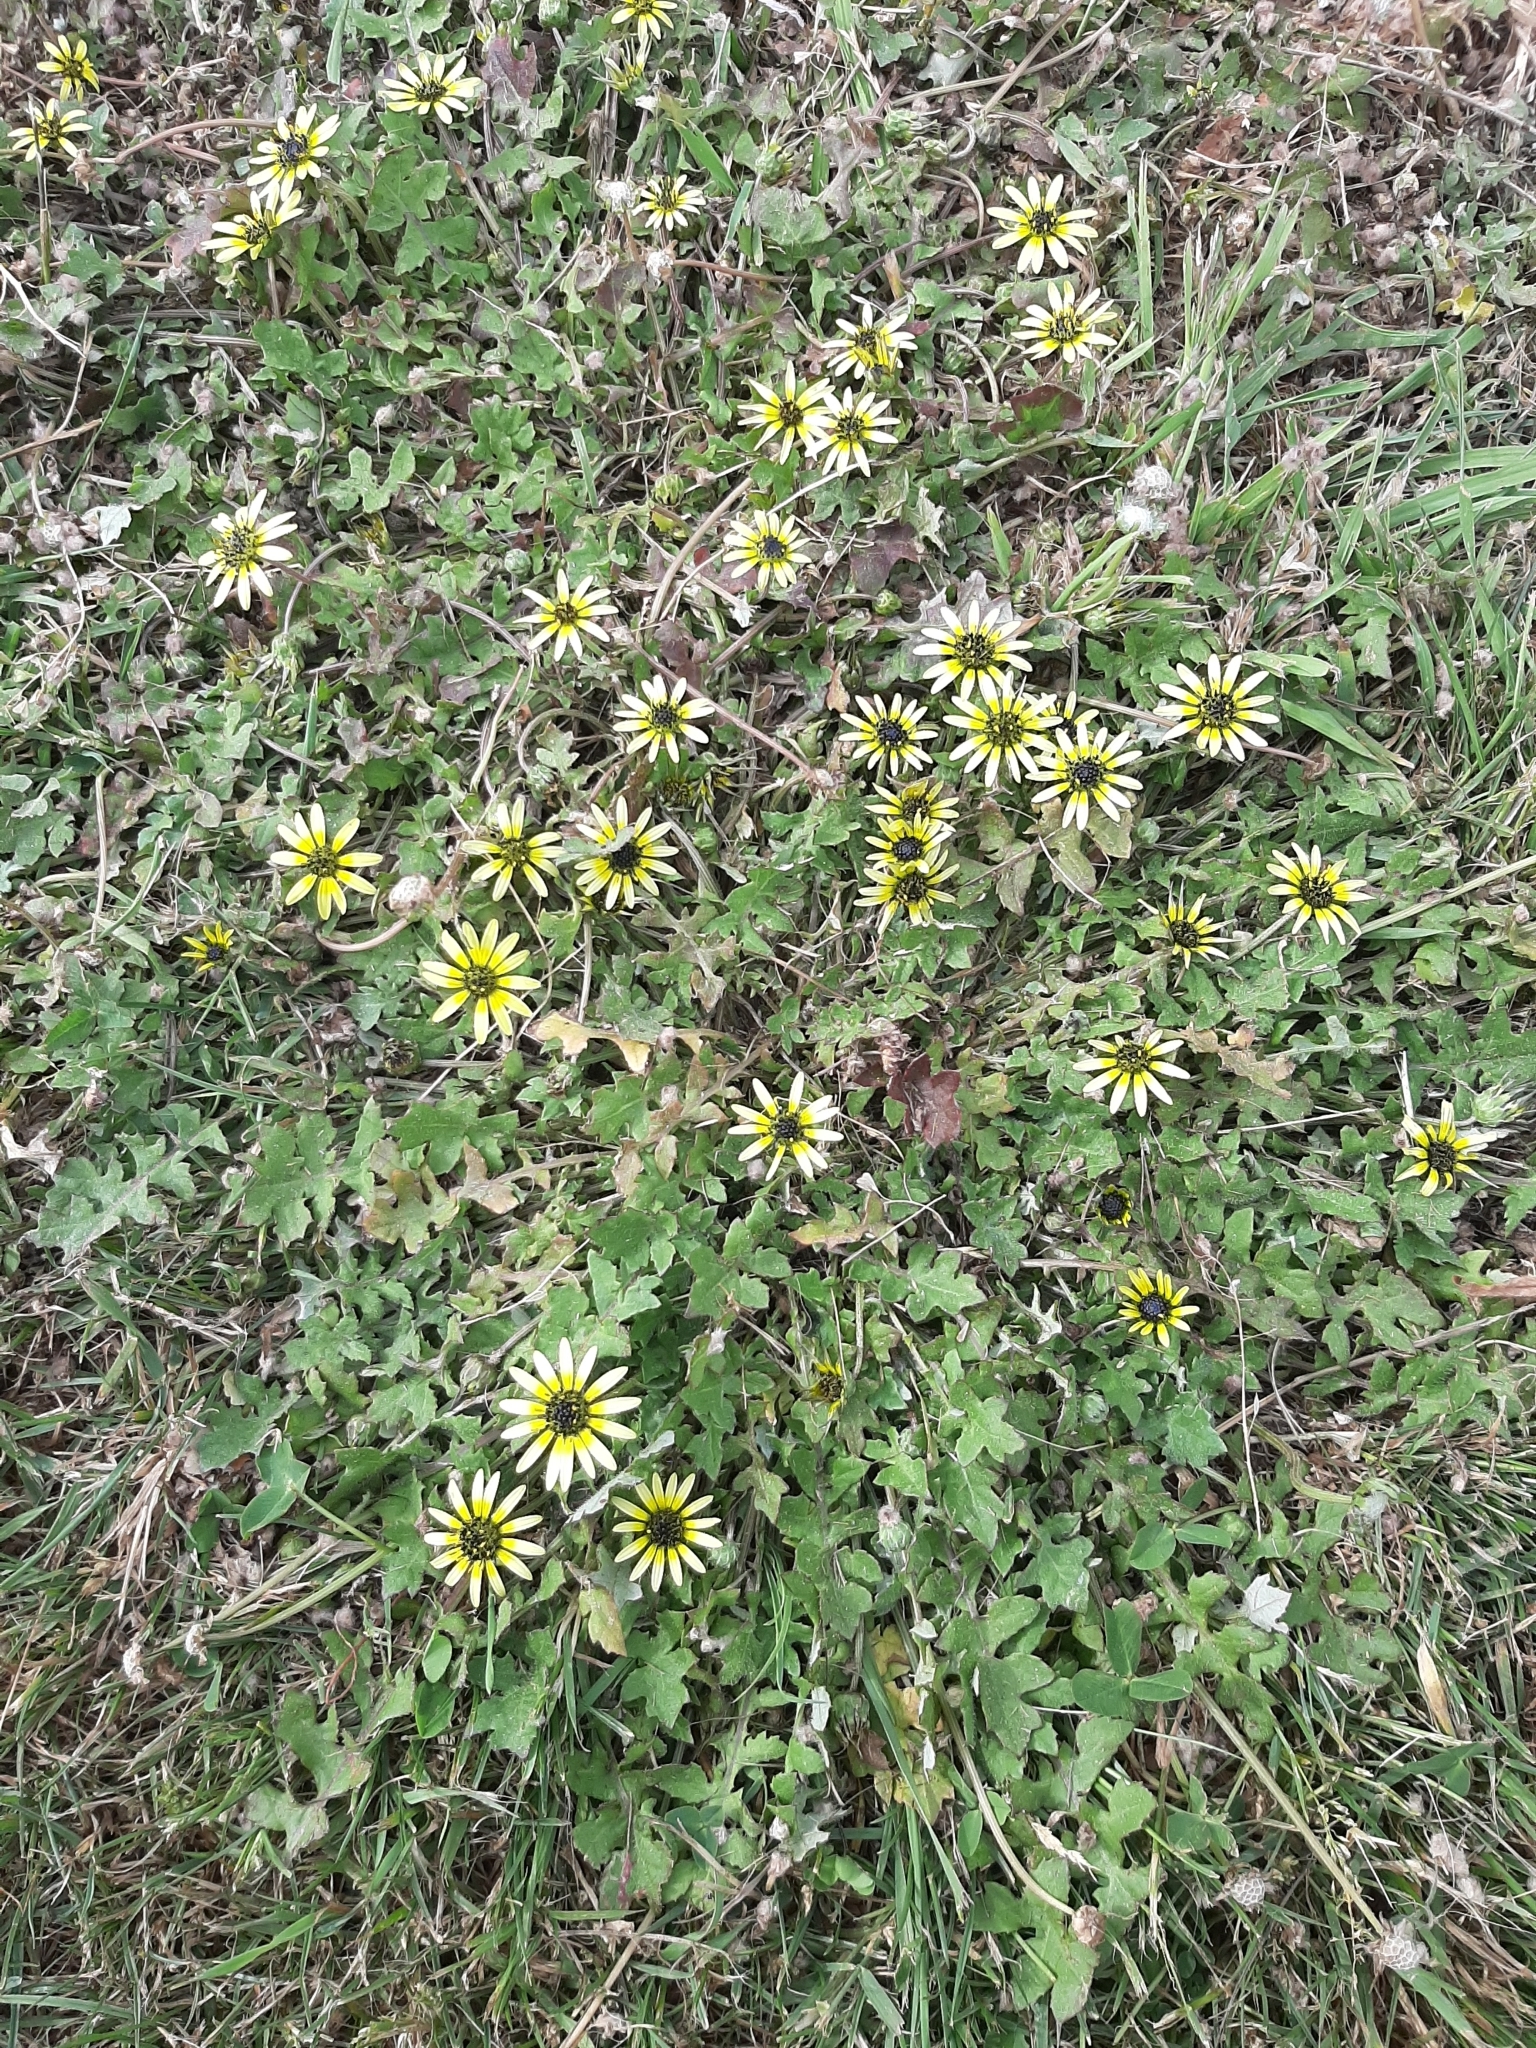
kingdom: Plantae
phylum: Tracheophyta
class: Magnoliopsida
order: Asterales
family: Asteraceae
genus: Arctotheca
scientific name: Arctotheca calendula
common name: Capeweed
